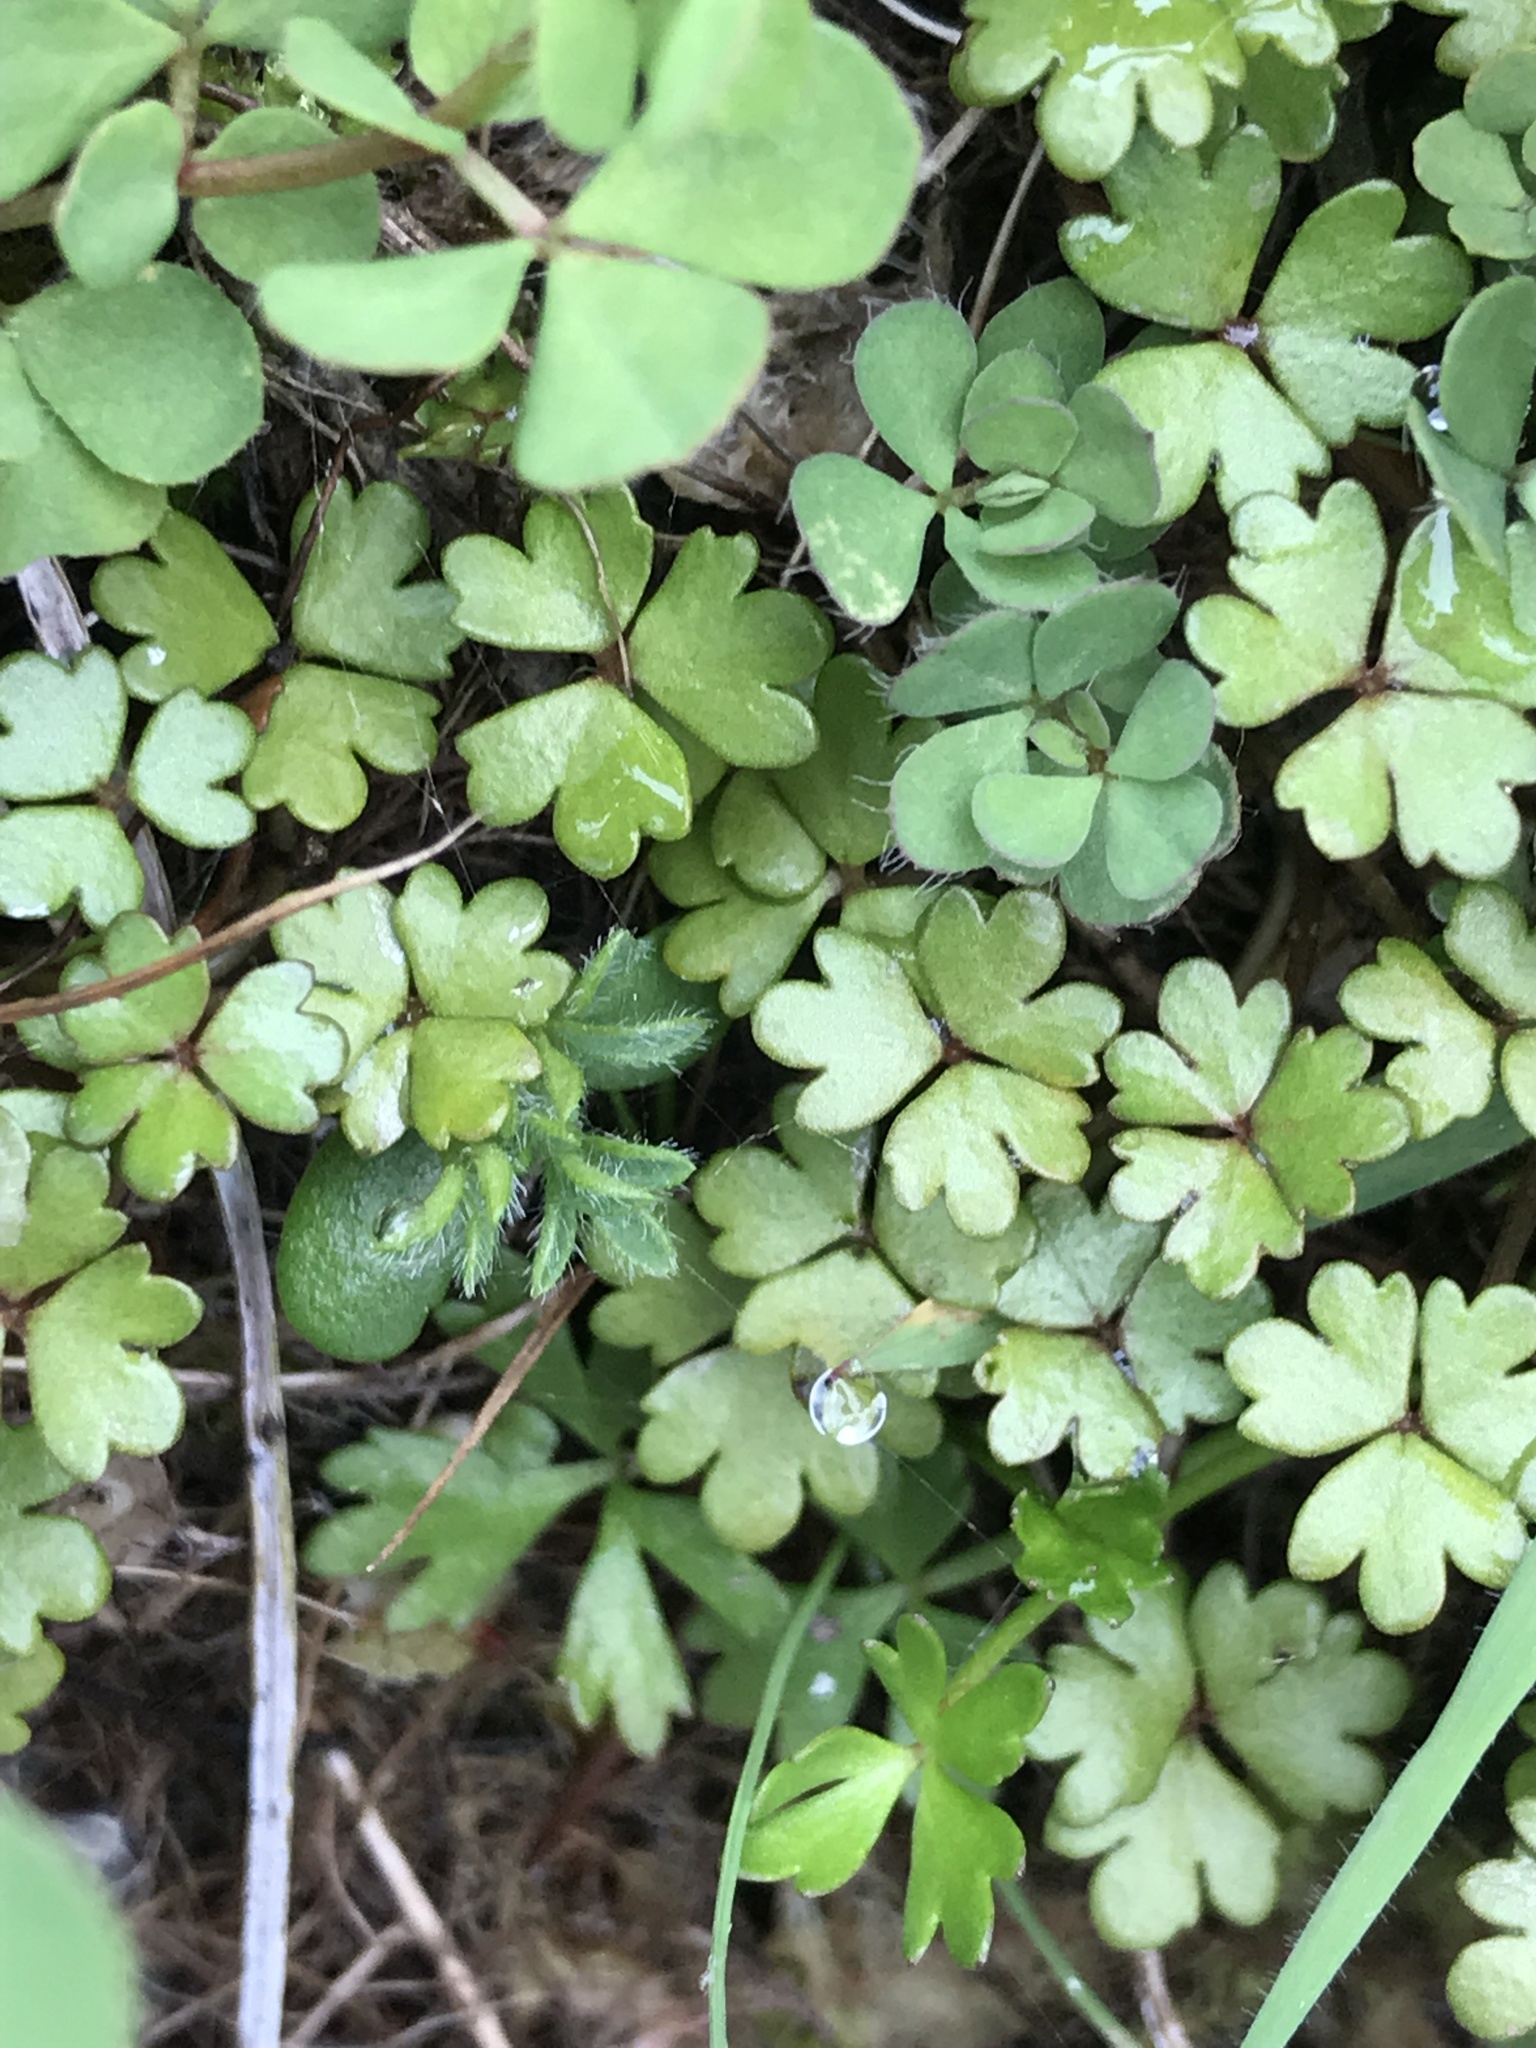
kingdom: Plantae
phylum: Tracheophyta
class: Magnoliopsida
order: Apiales
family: Araliaceae
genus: Hydrocotyle
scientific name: Hydrocotyle sulcata
